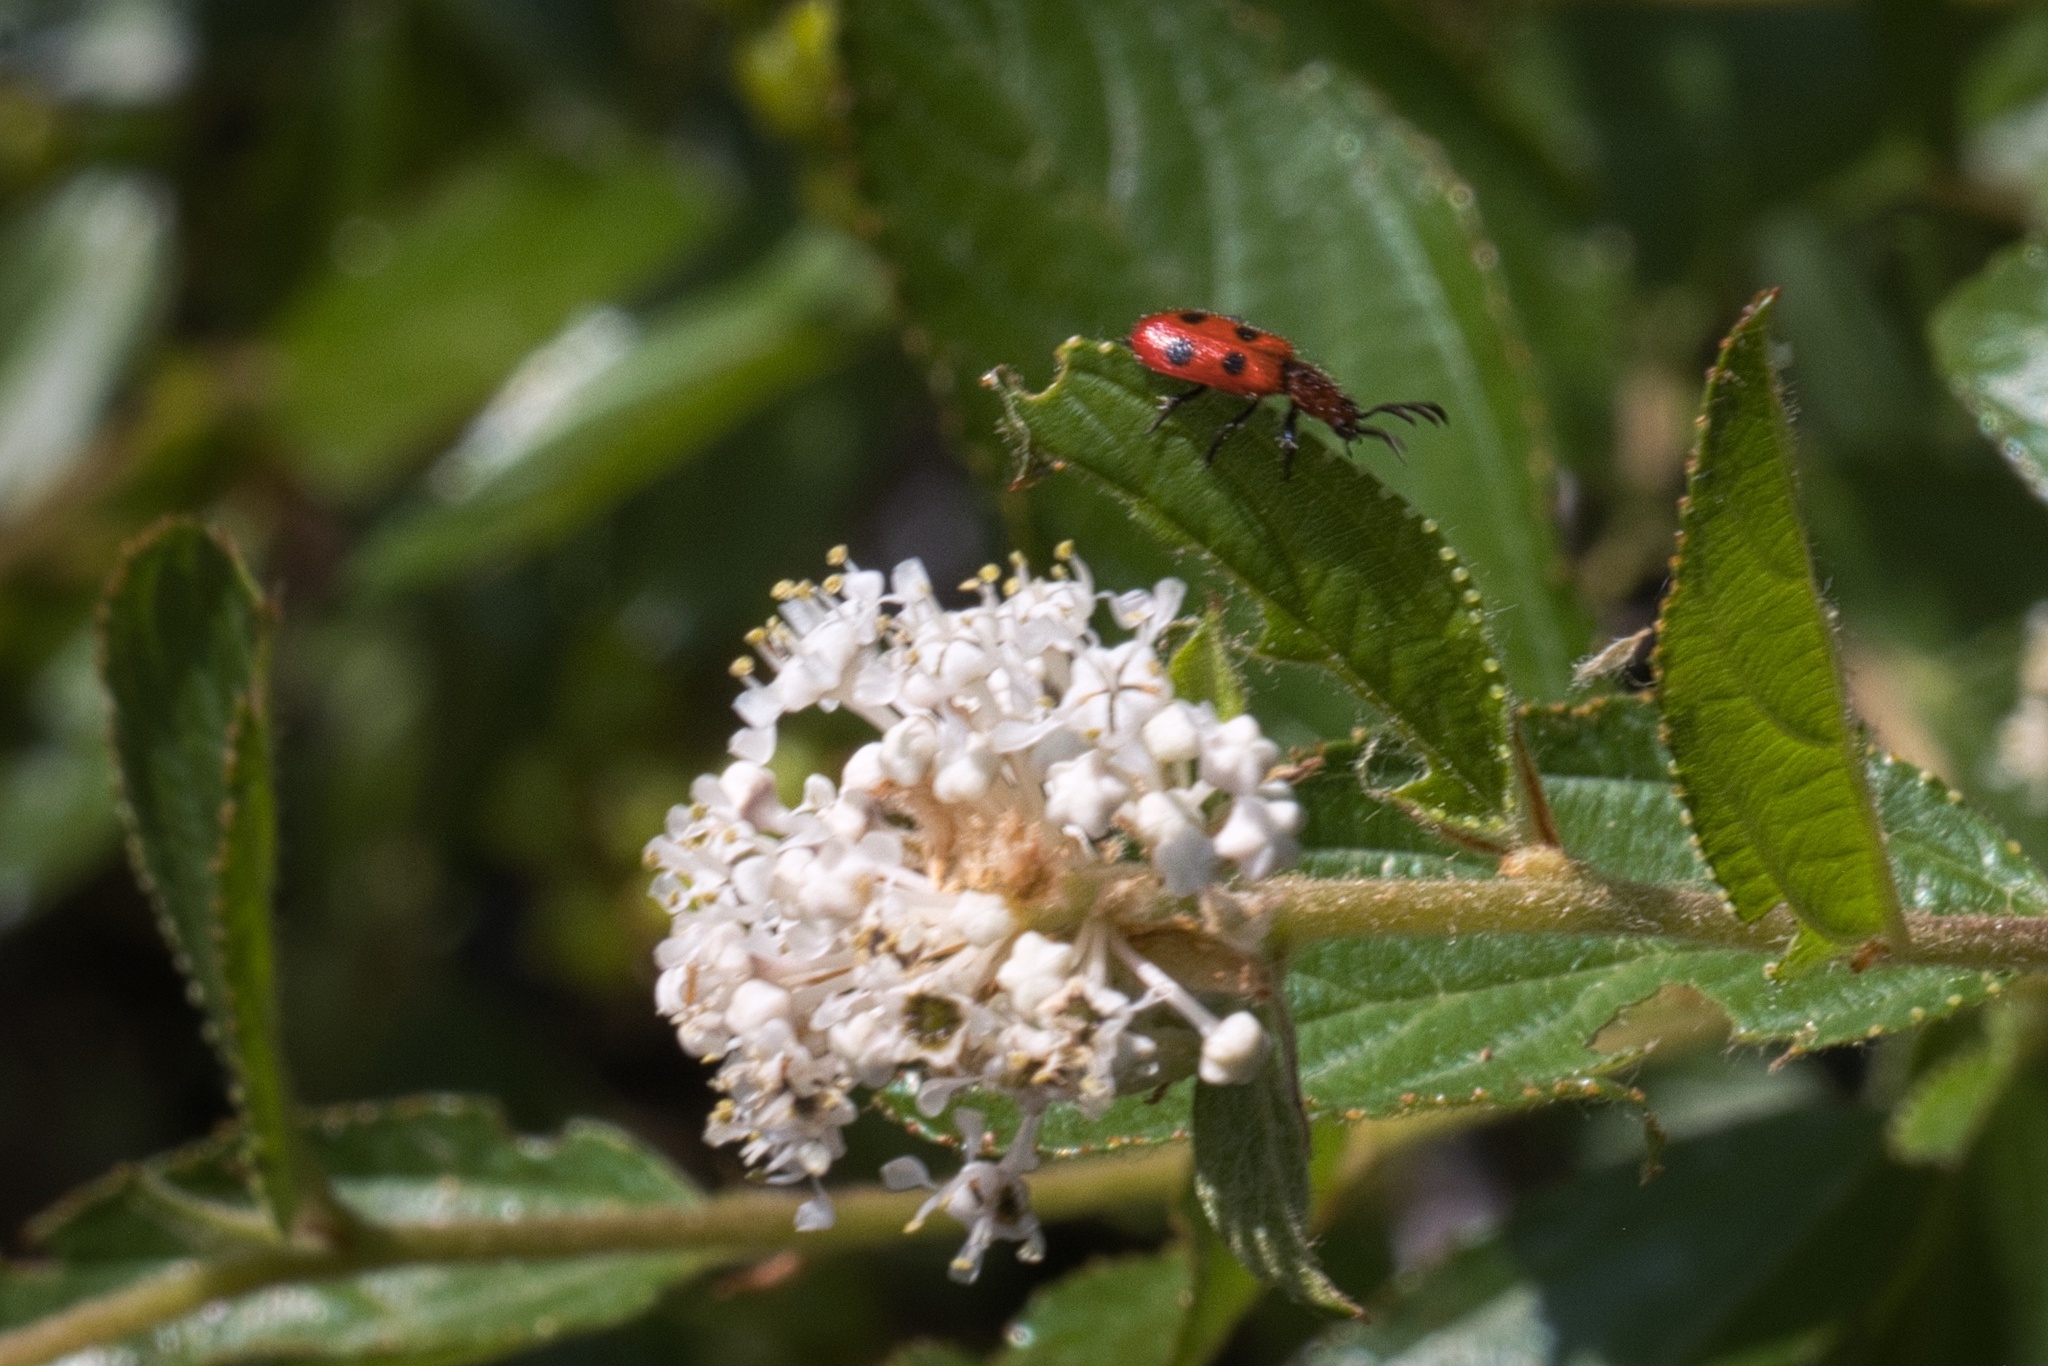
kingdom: Animalia
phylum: Arthropoda
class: Insecta
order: Coleoptera
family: Cleridae
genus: Pelonides
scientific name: Pelonides
